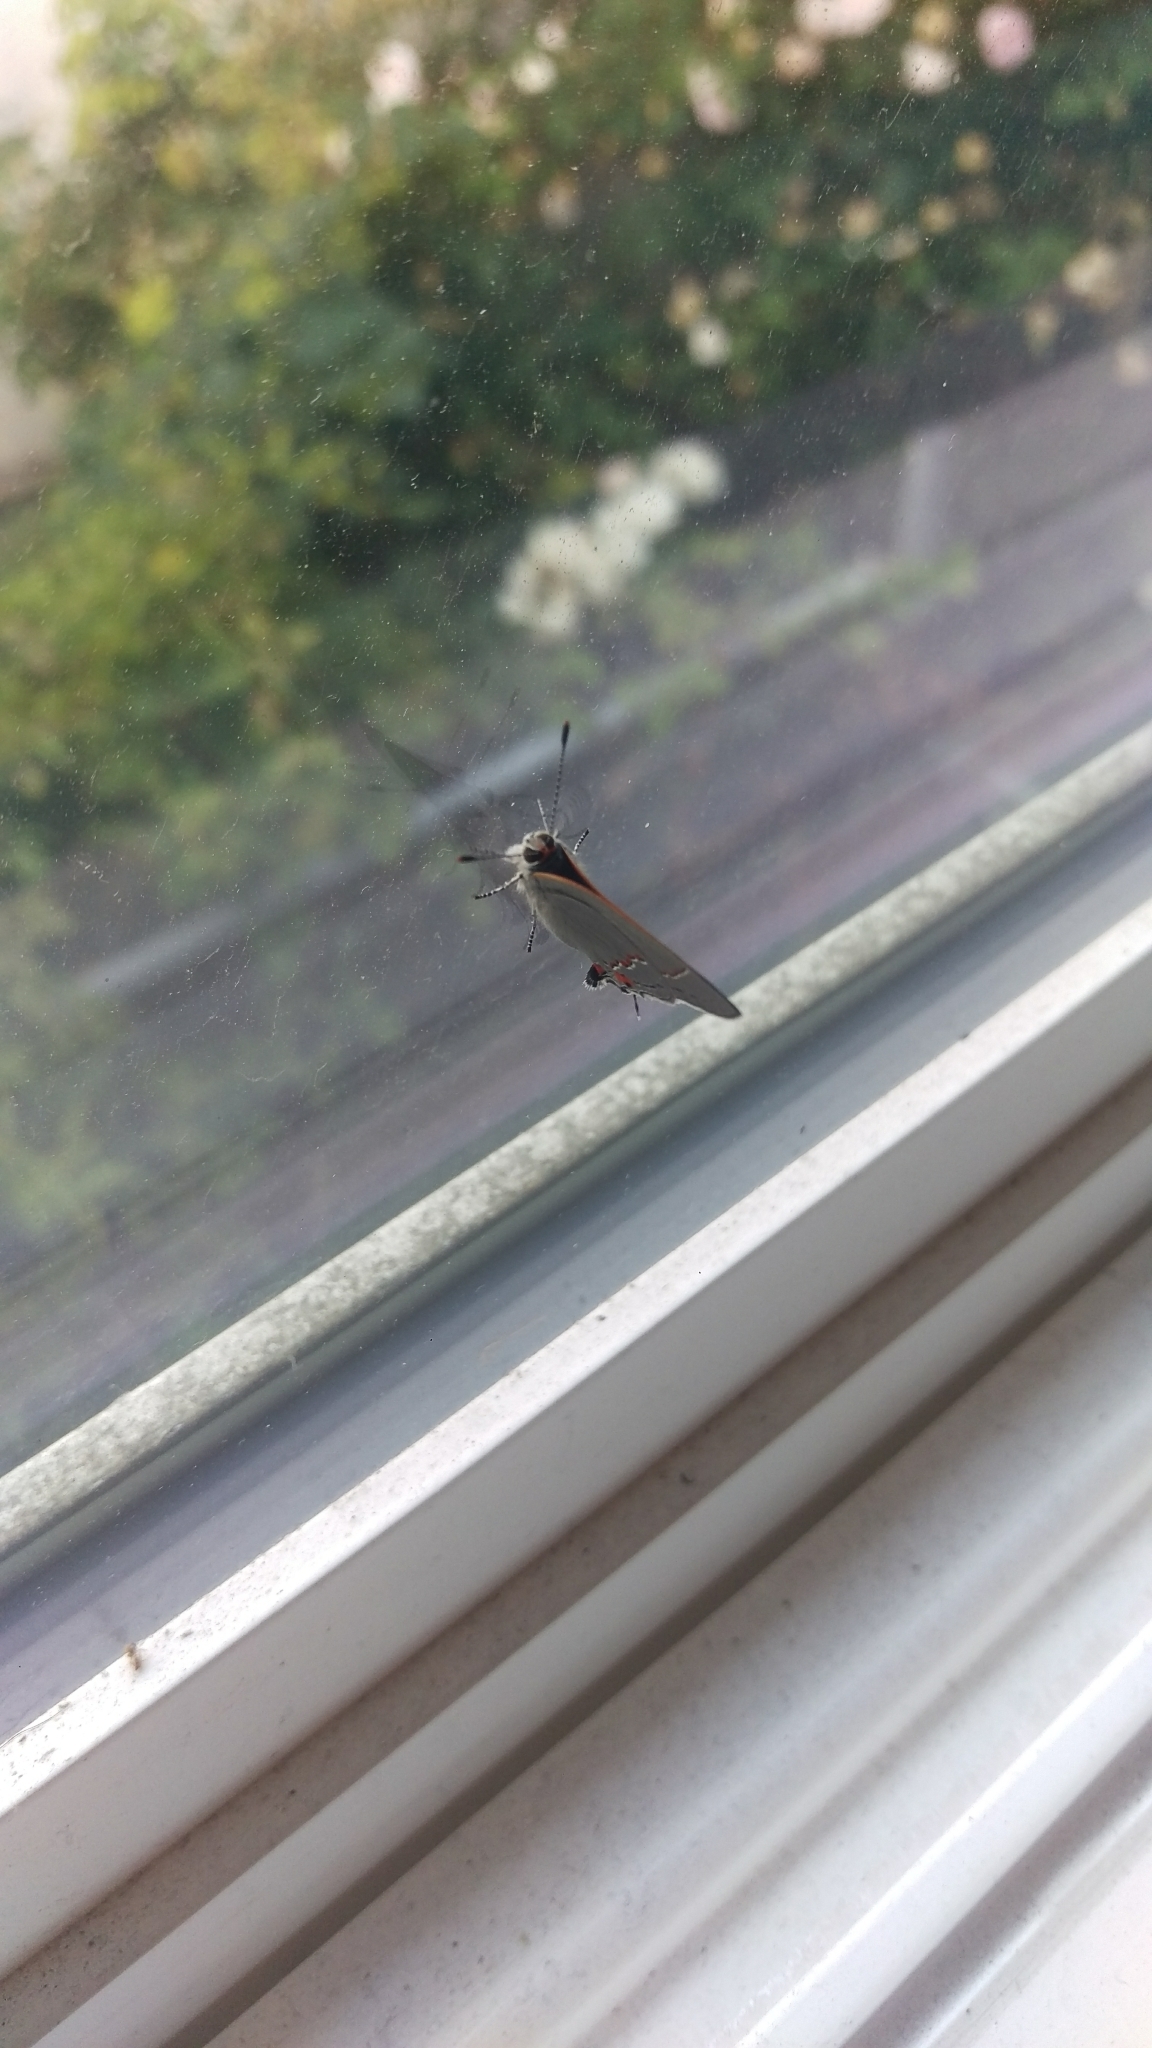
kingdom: Animalia
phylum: Arthropoda
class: Insecta
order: Lepidoptera
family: Lycaenidae
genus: Strymon
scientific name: Strymon melinus
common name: Gray hairstreak
